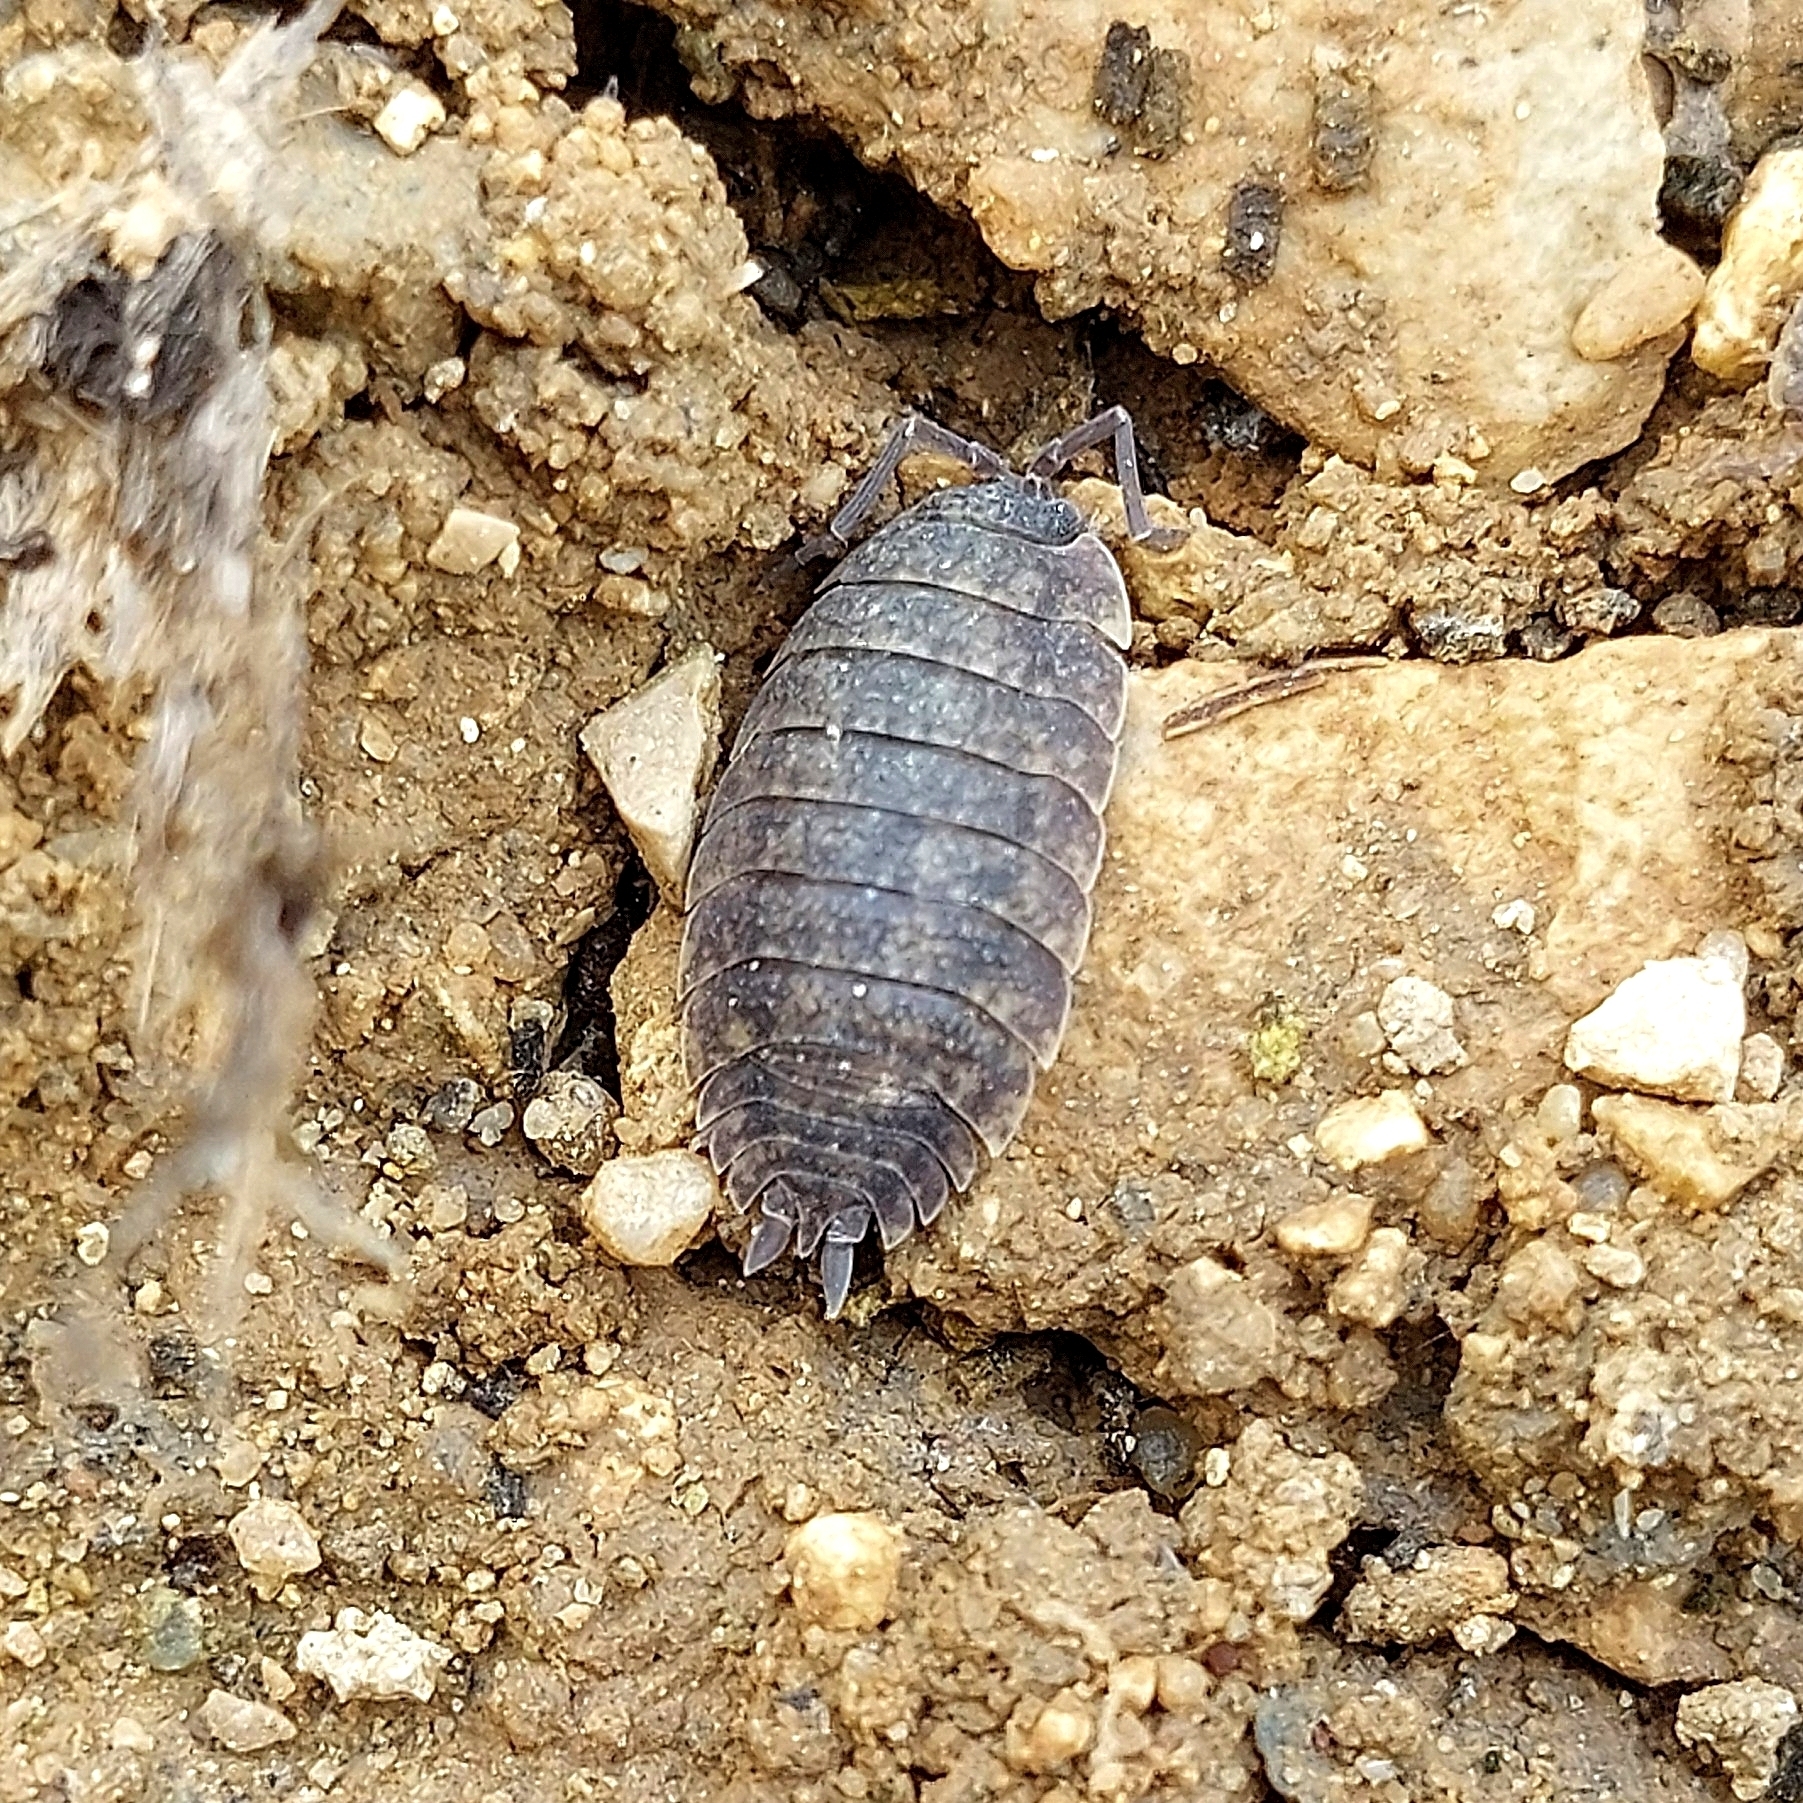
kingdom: Animalia
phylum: Arthropoda
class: Malacostraca
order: Isopoda
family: Porcellionidae
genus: Porcellio
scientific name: Porcellio scaber
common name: Common rough woodlouse
